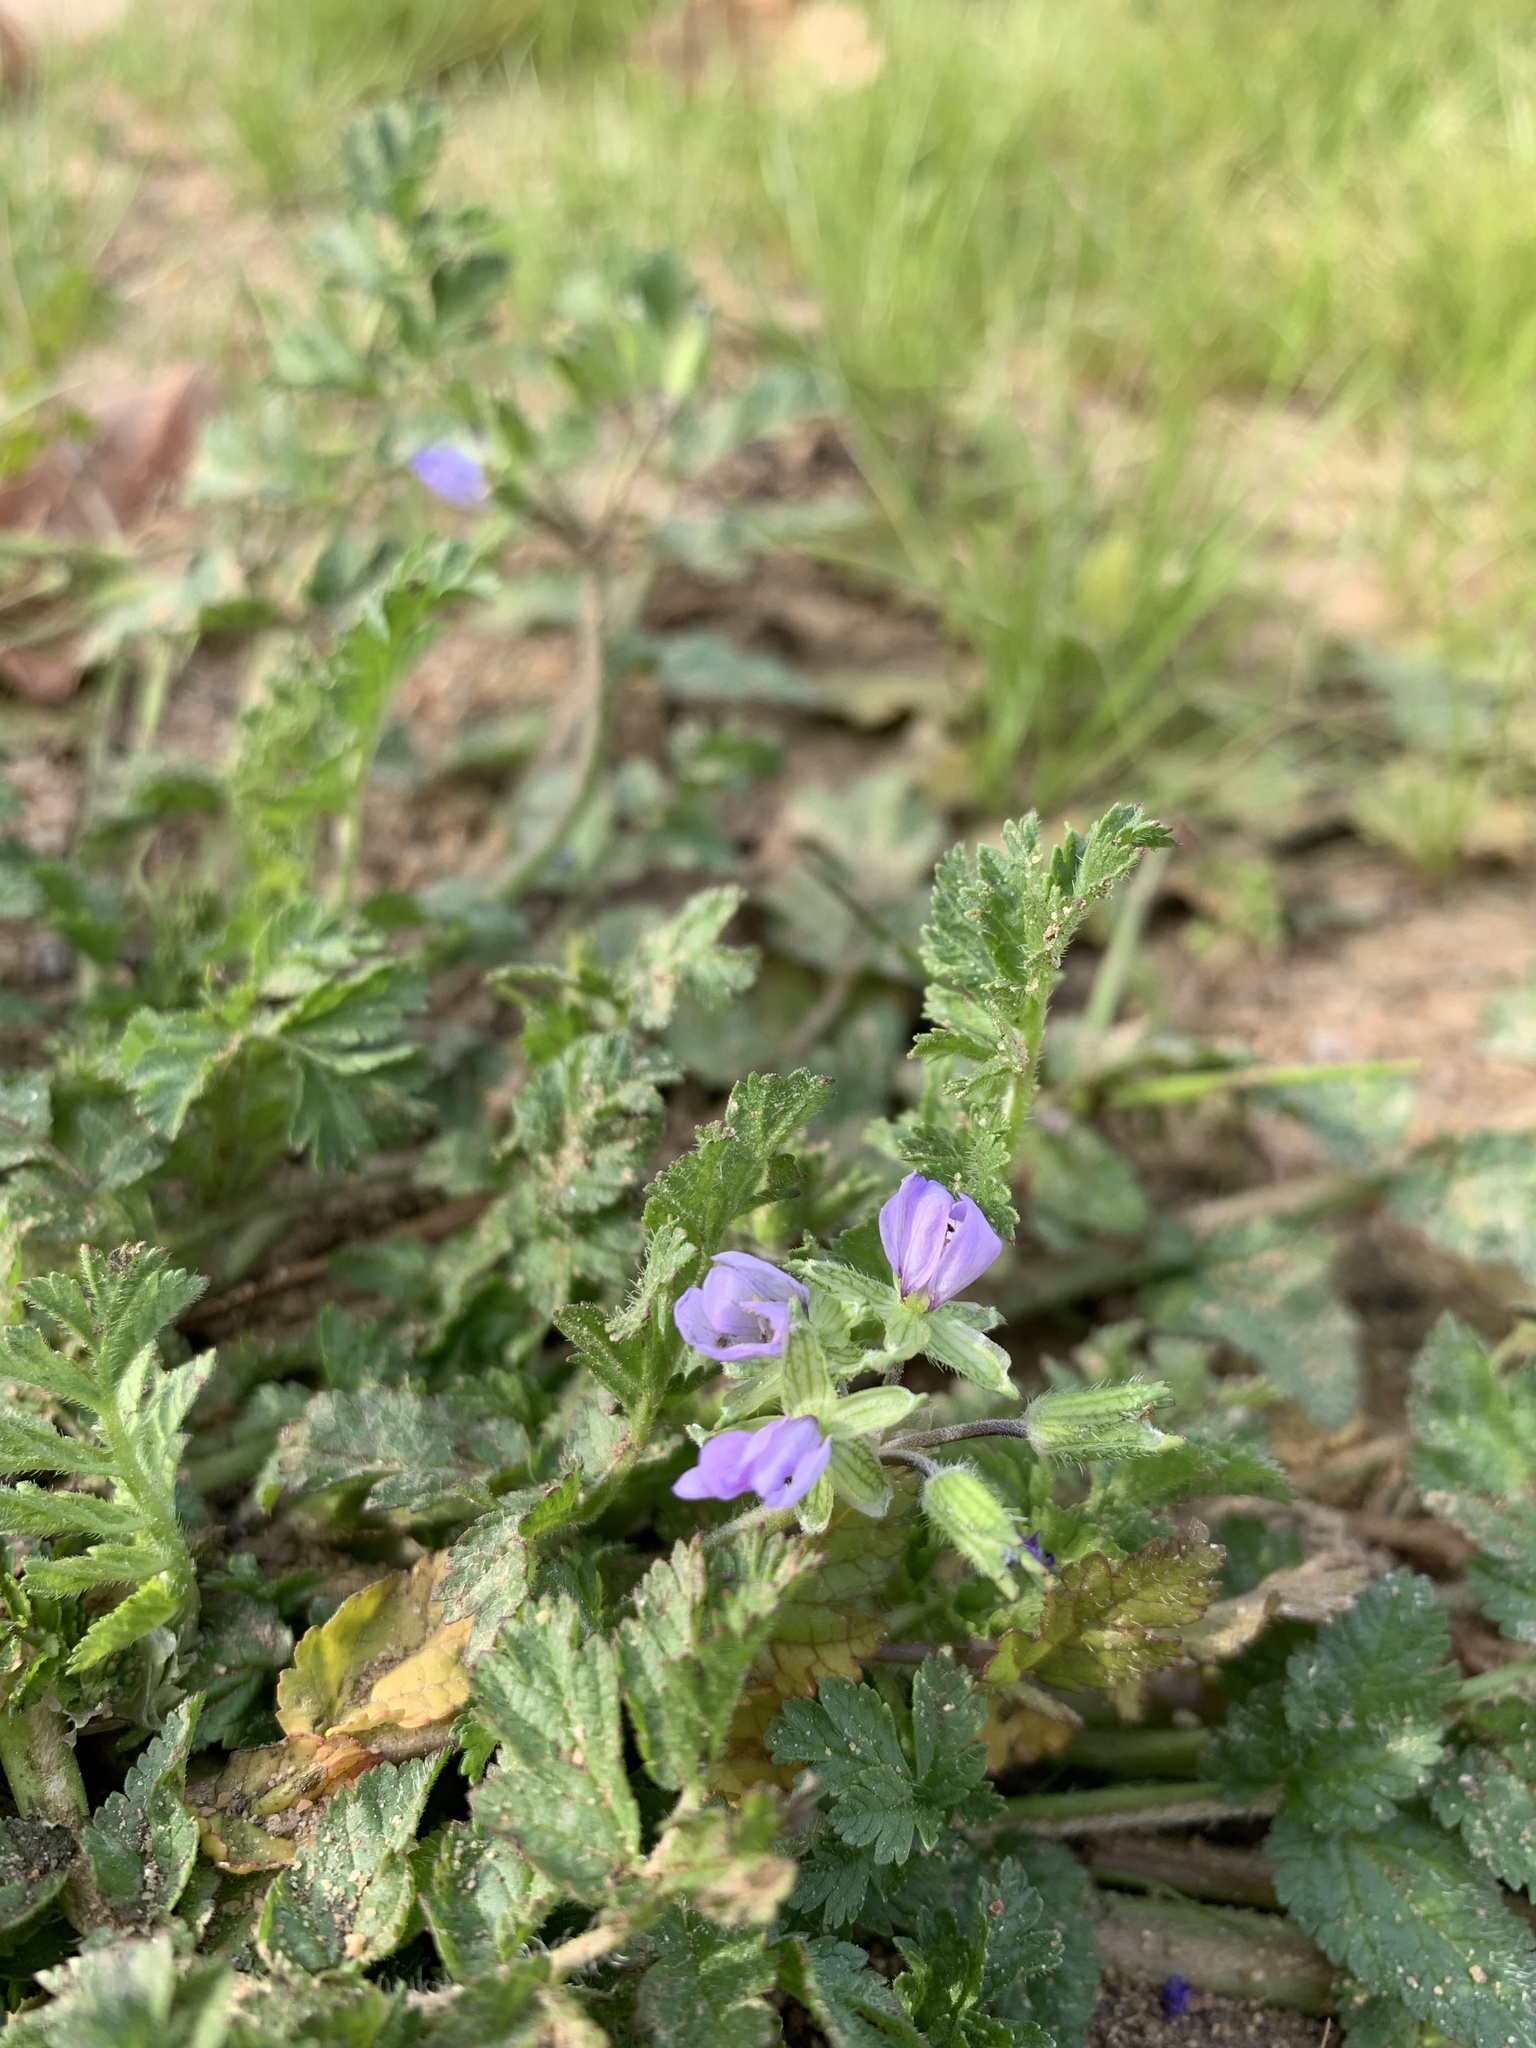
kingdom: Plantae
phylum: Tracheophyta
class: Magnoliopsida
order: Geraniales
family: Geraniaceae
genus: Erodium
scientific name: Erodium moschatum
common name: Musk stork's-bill
